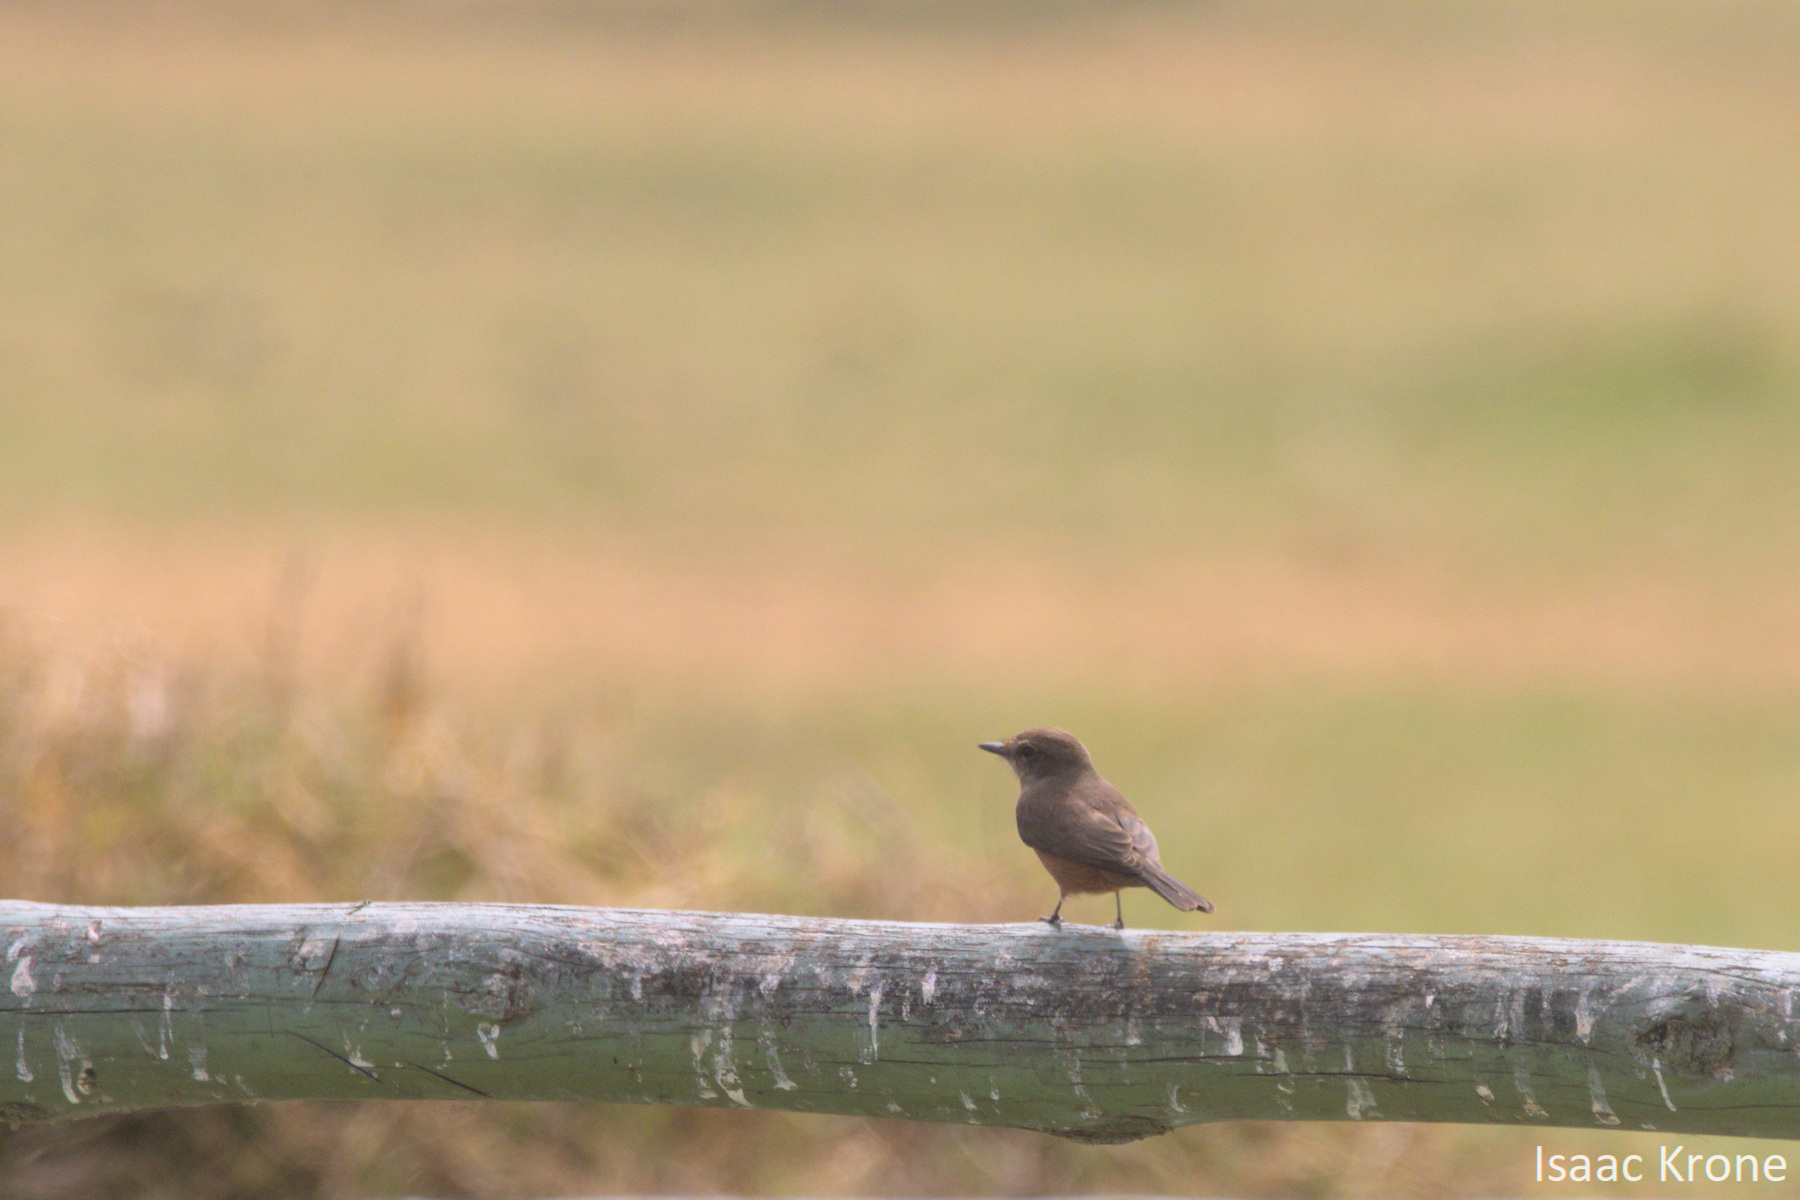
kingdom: Animalia
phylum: Chordata
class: Aves
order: Passeriformes
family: Tyrannidae
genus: Pyrocephalus
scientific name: Pyrocephalus rubinus
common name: Vermilion flycatcher
